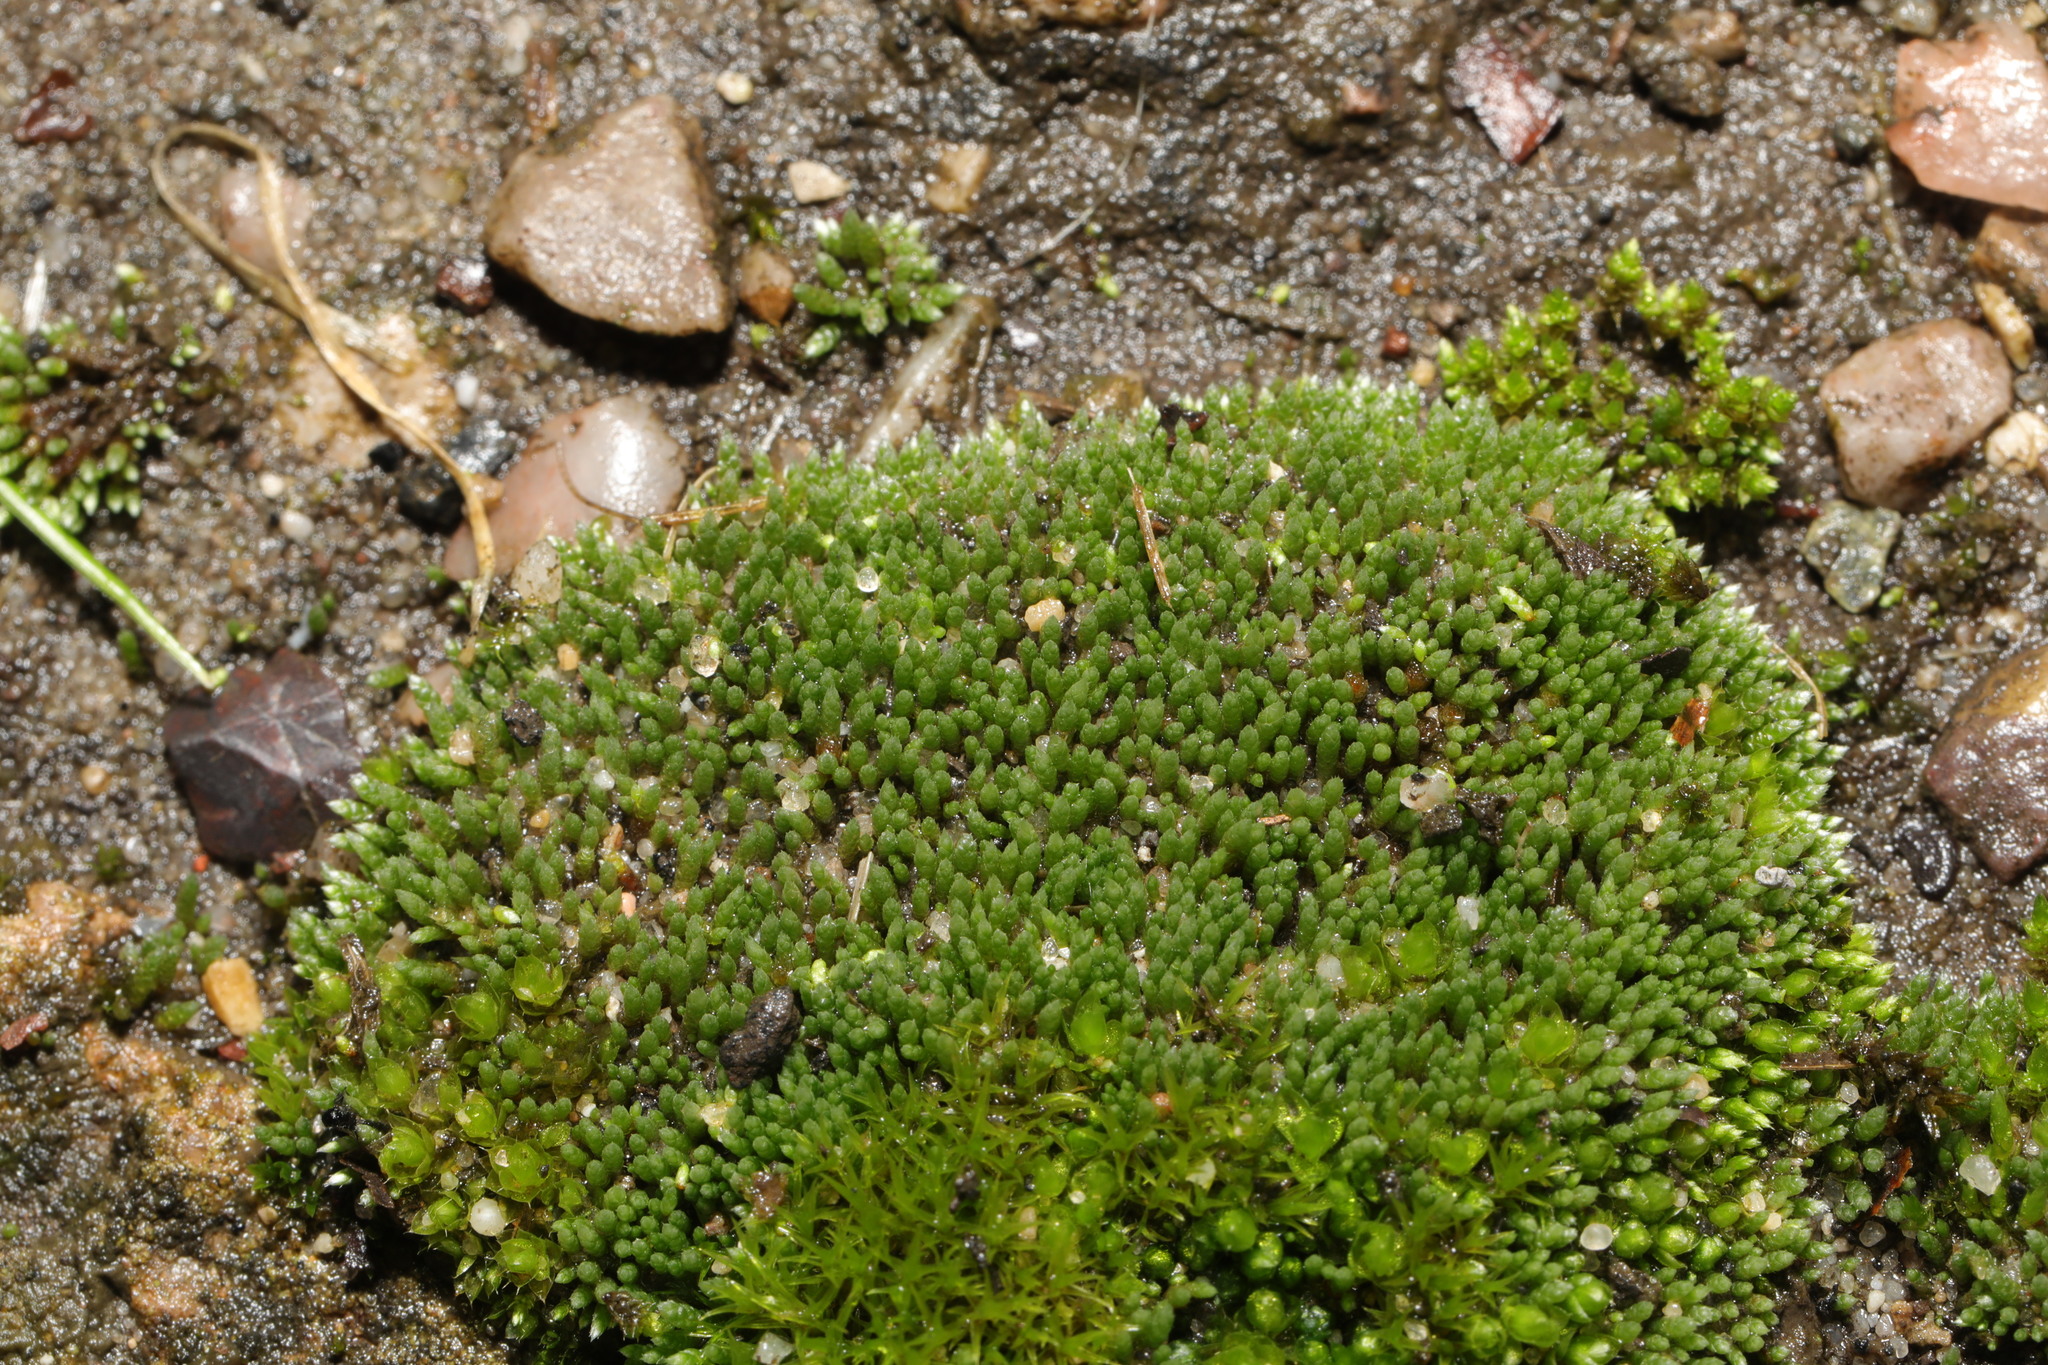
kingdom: Plantae
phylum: Bryophyta
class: Bryopsida
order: Bryales
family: Bryaceae
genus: Bryum
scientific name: Bryum argenteum
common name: Silver-moss
